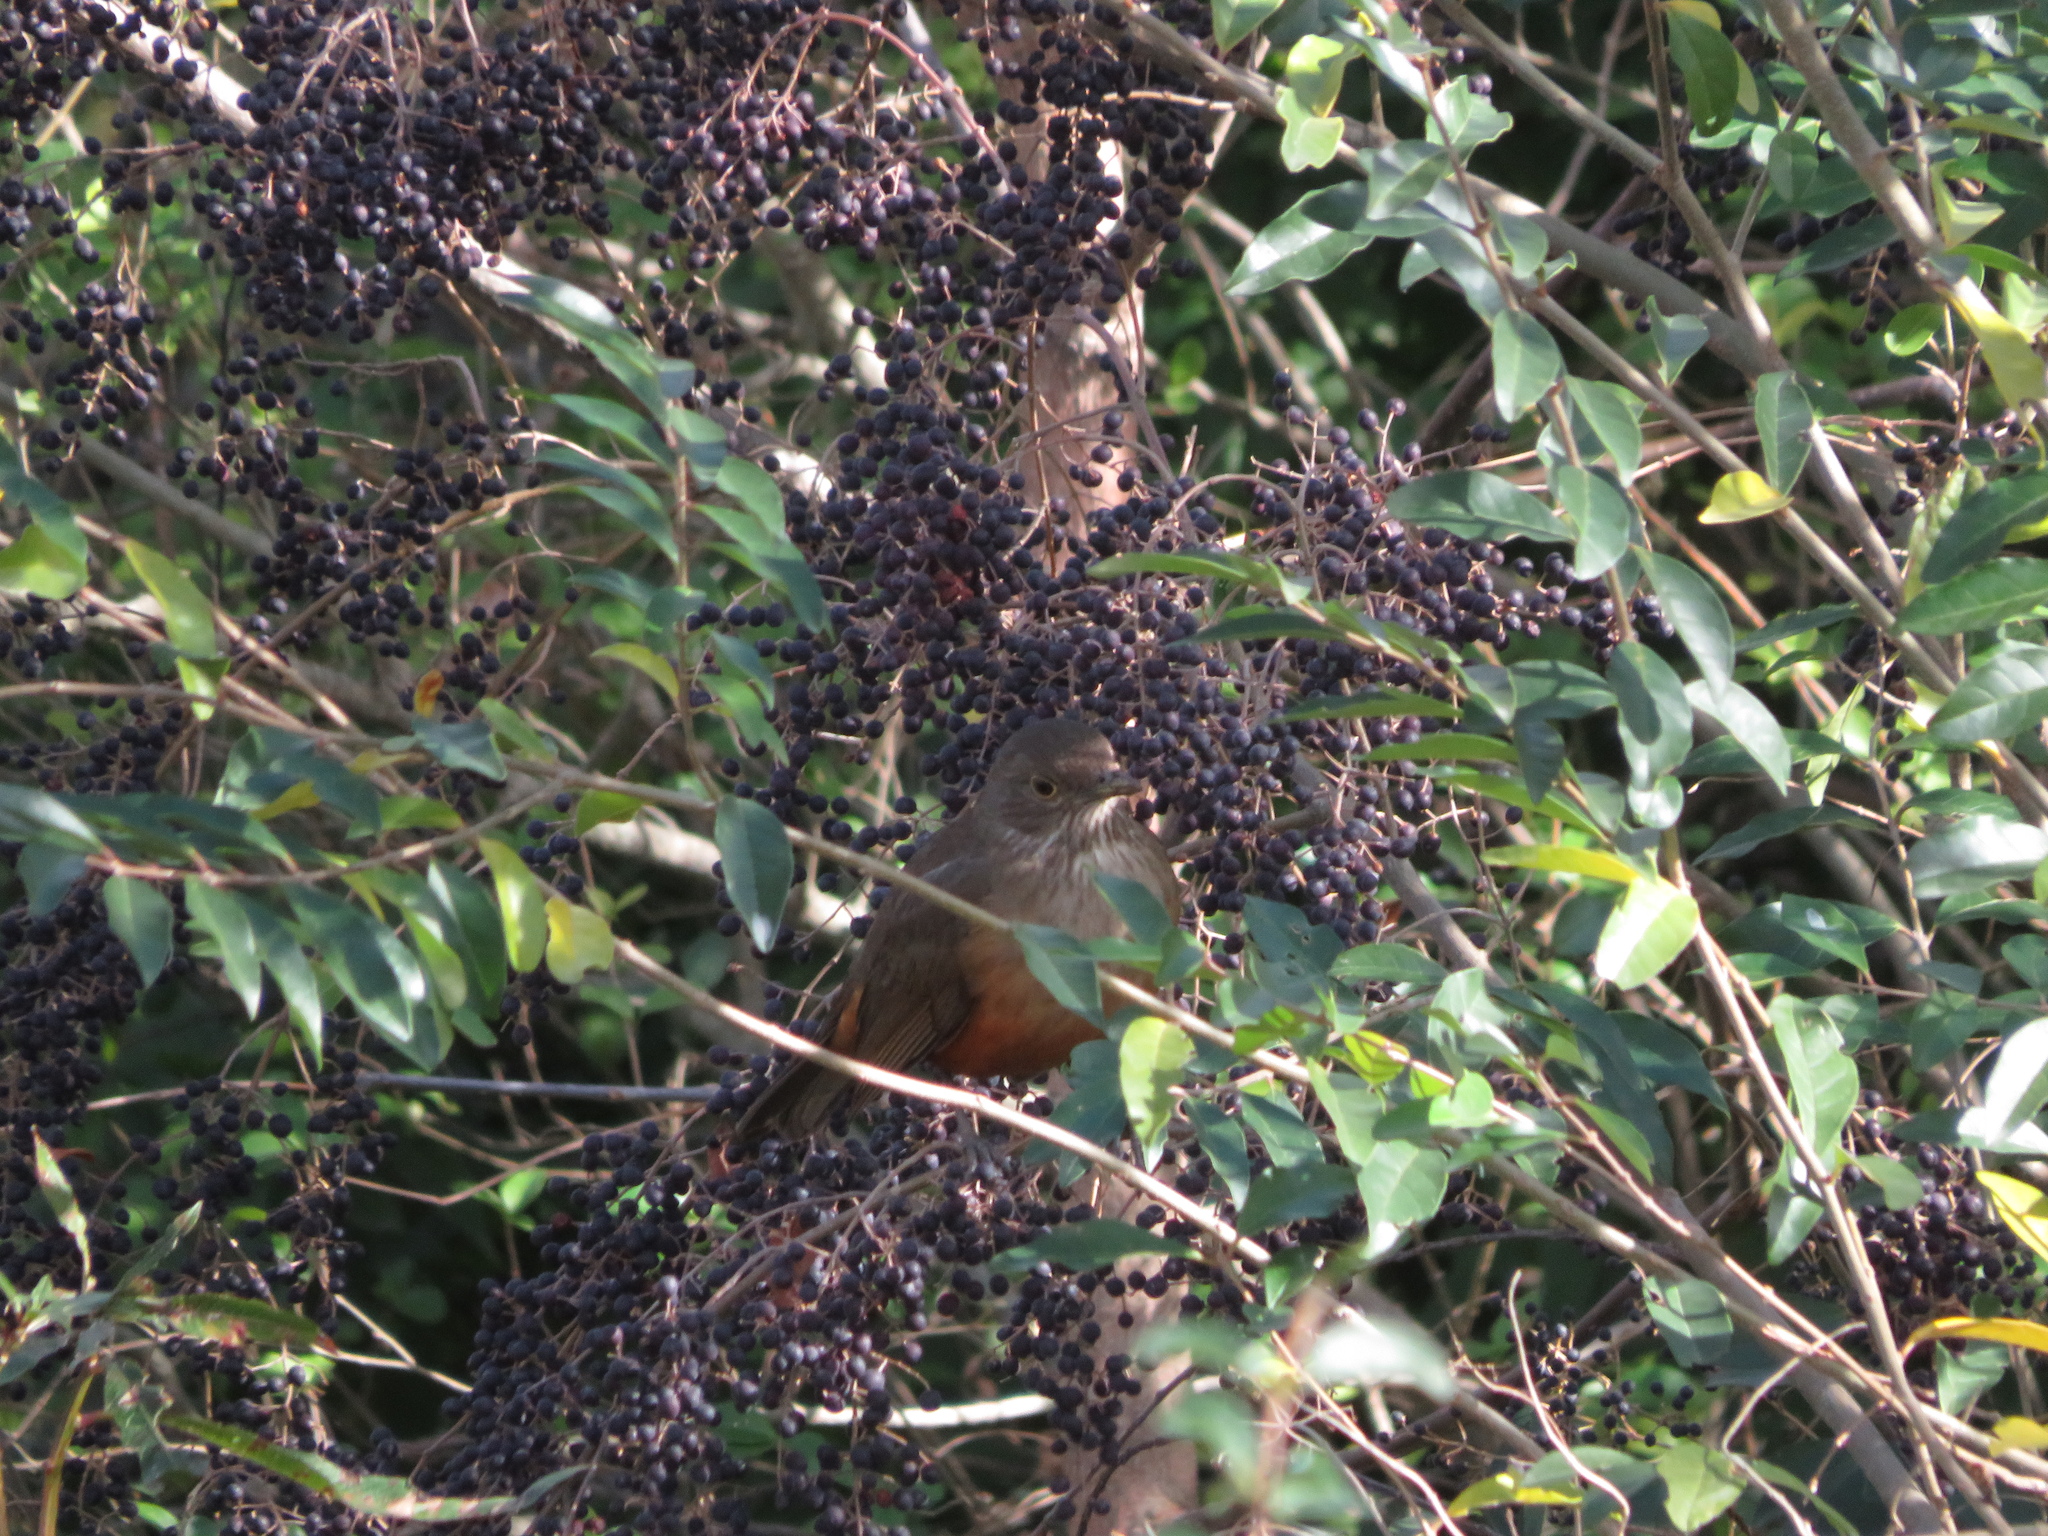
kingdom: Animalia
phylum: Chordata
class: Aves
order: Passeriformes
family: Turdidae
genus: Turdus
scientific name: Turdus rufiventris
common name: Rufous-bellied thrush
